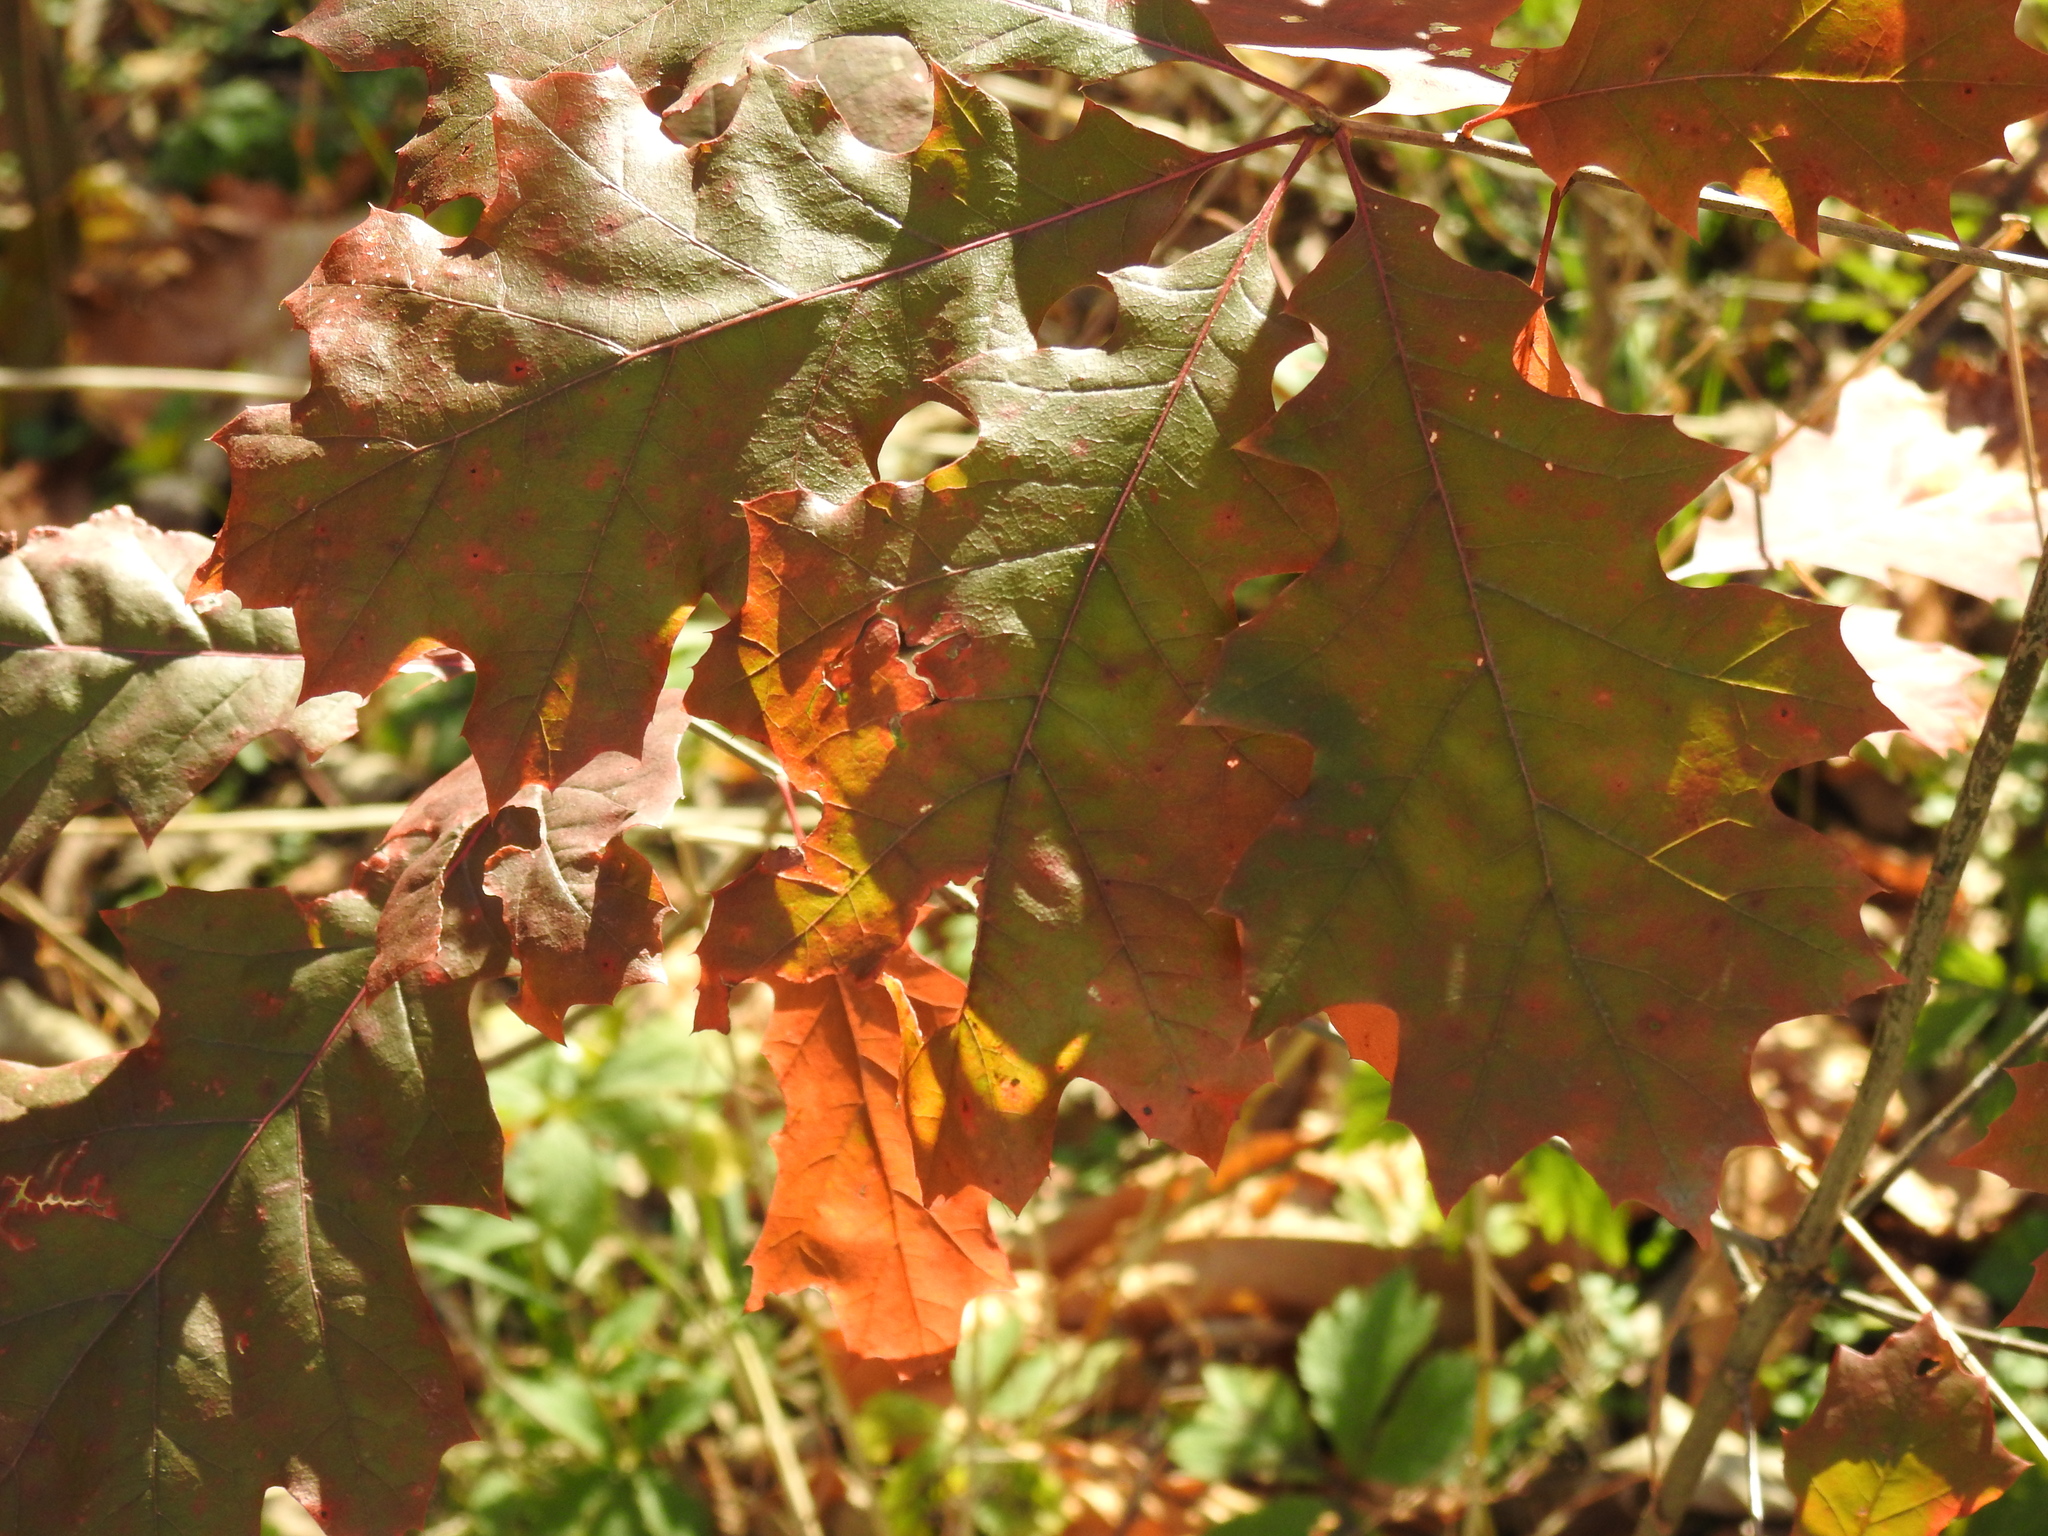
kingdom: Plantae
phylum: Tracheophyta
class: Magnoliopsida
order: Fagales
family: Fagaceae
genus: Quercus
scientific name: Quercus rubra
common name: Red oak
